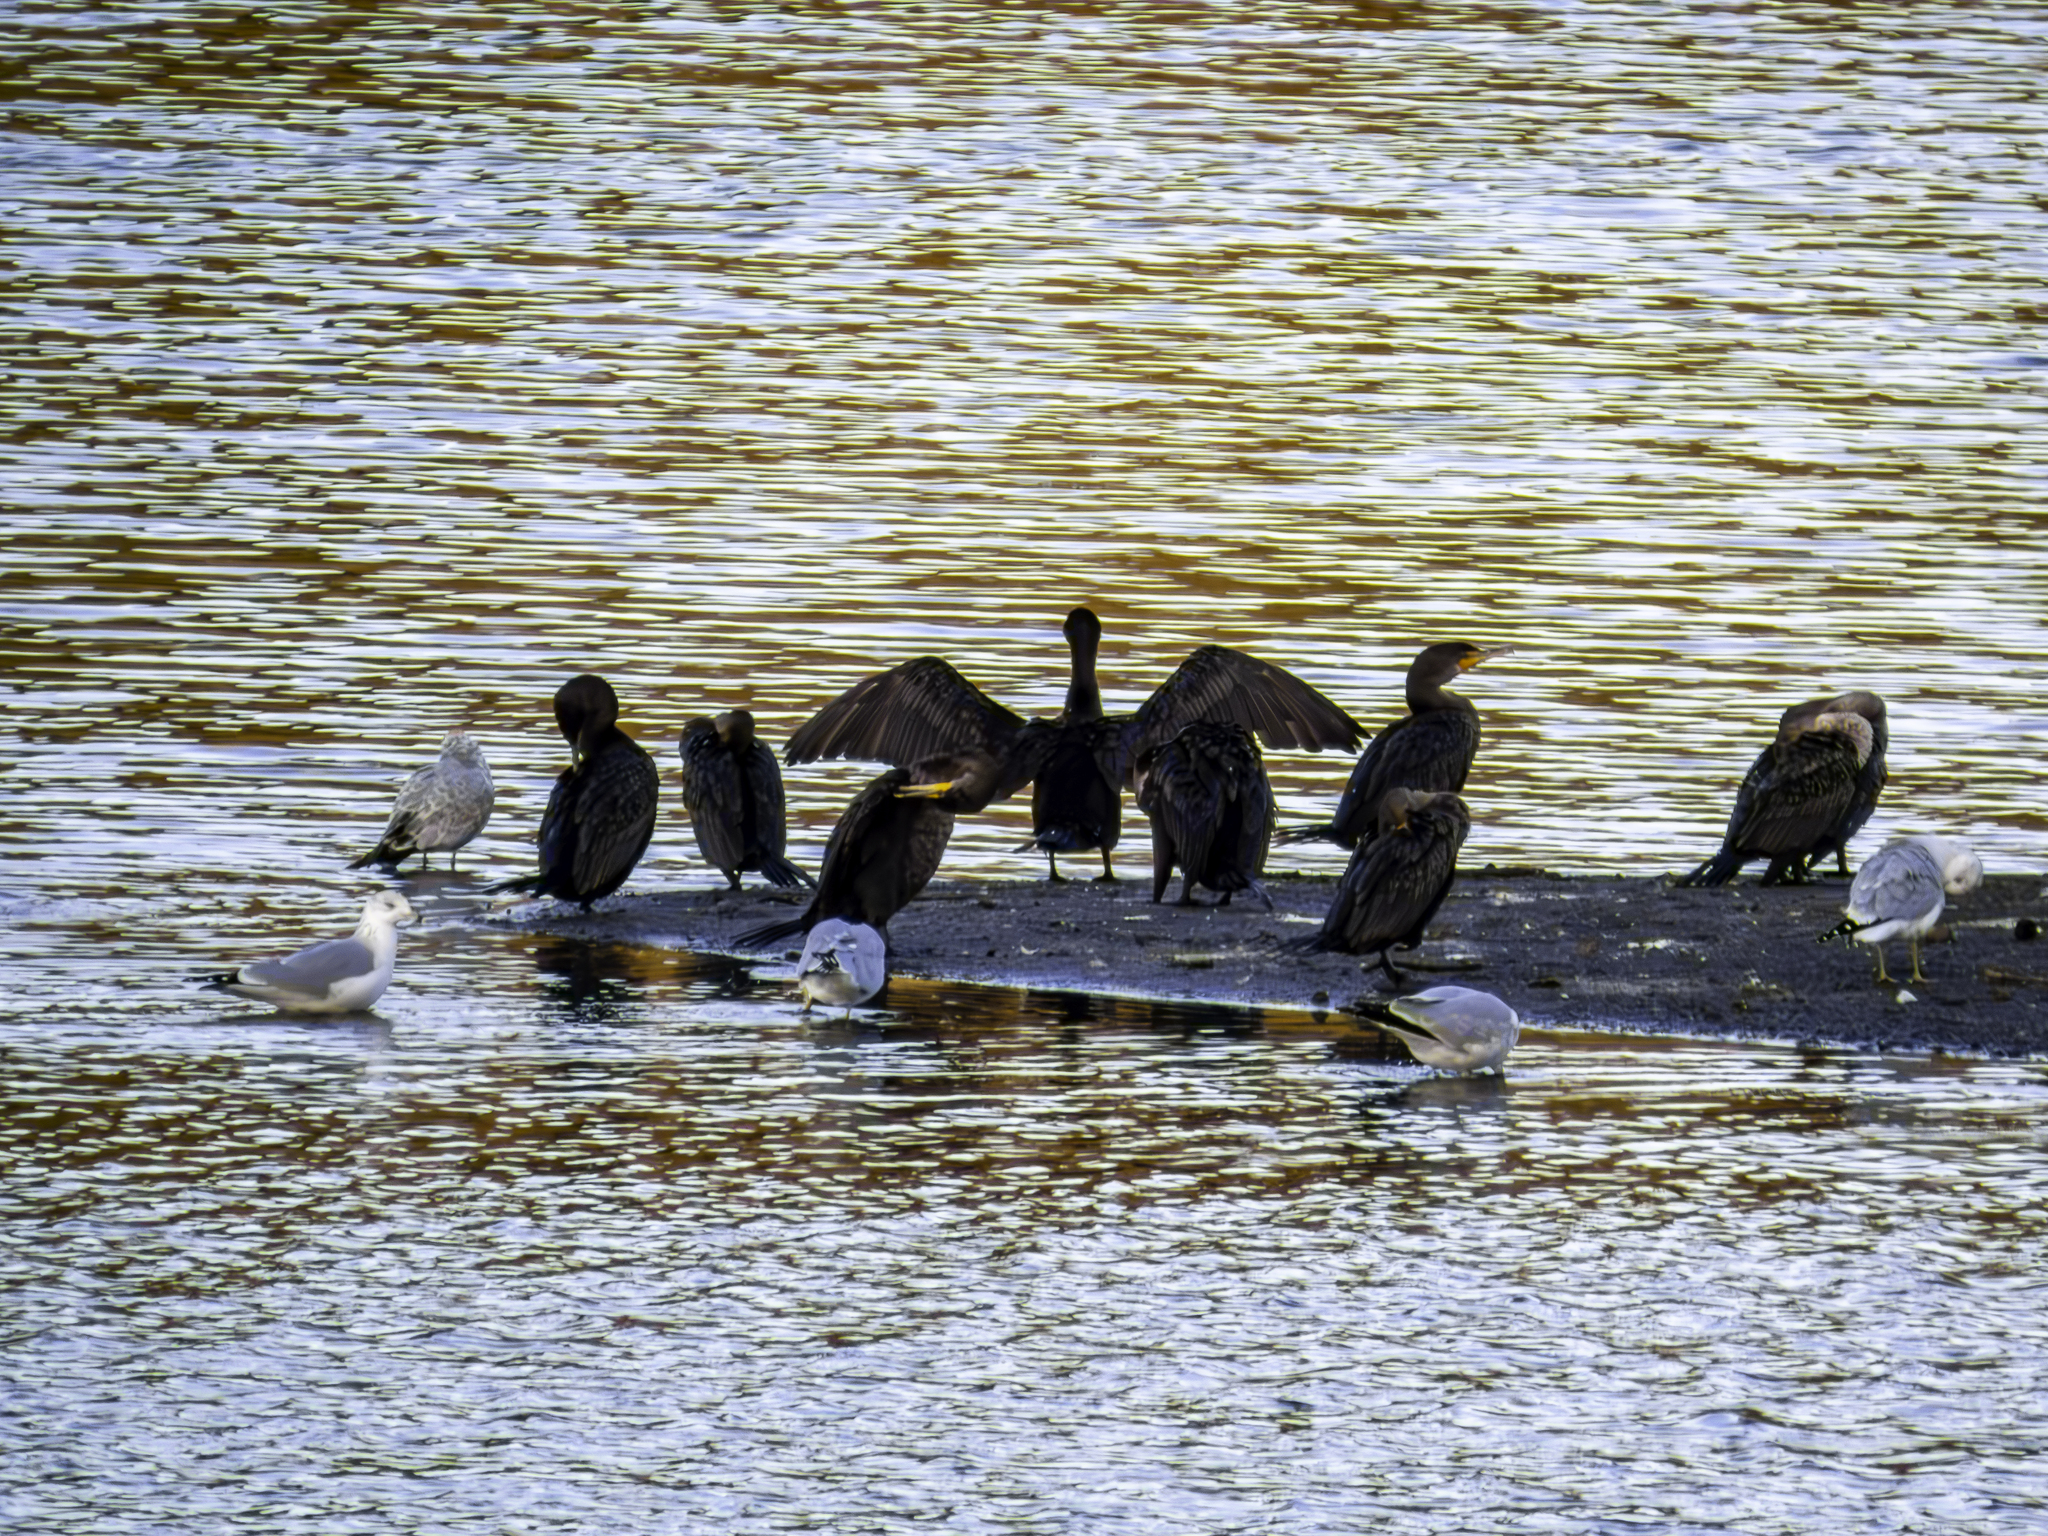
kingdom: Animalia
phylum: Chordata
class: Aves
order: Suliformes
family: Phalacrocoracidae
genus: Phalacrocorax
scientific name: Phalacrocorax auritus
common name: Double-crested cormorant
